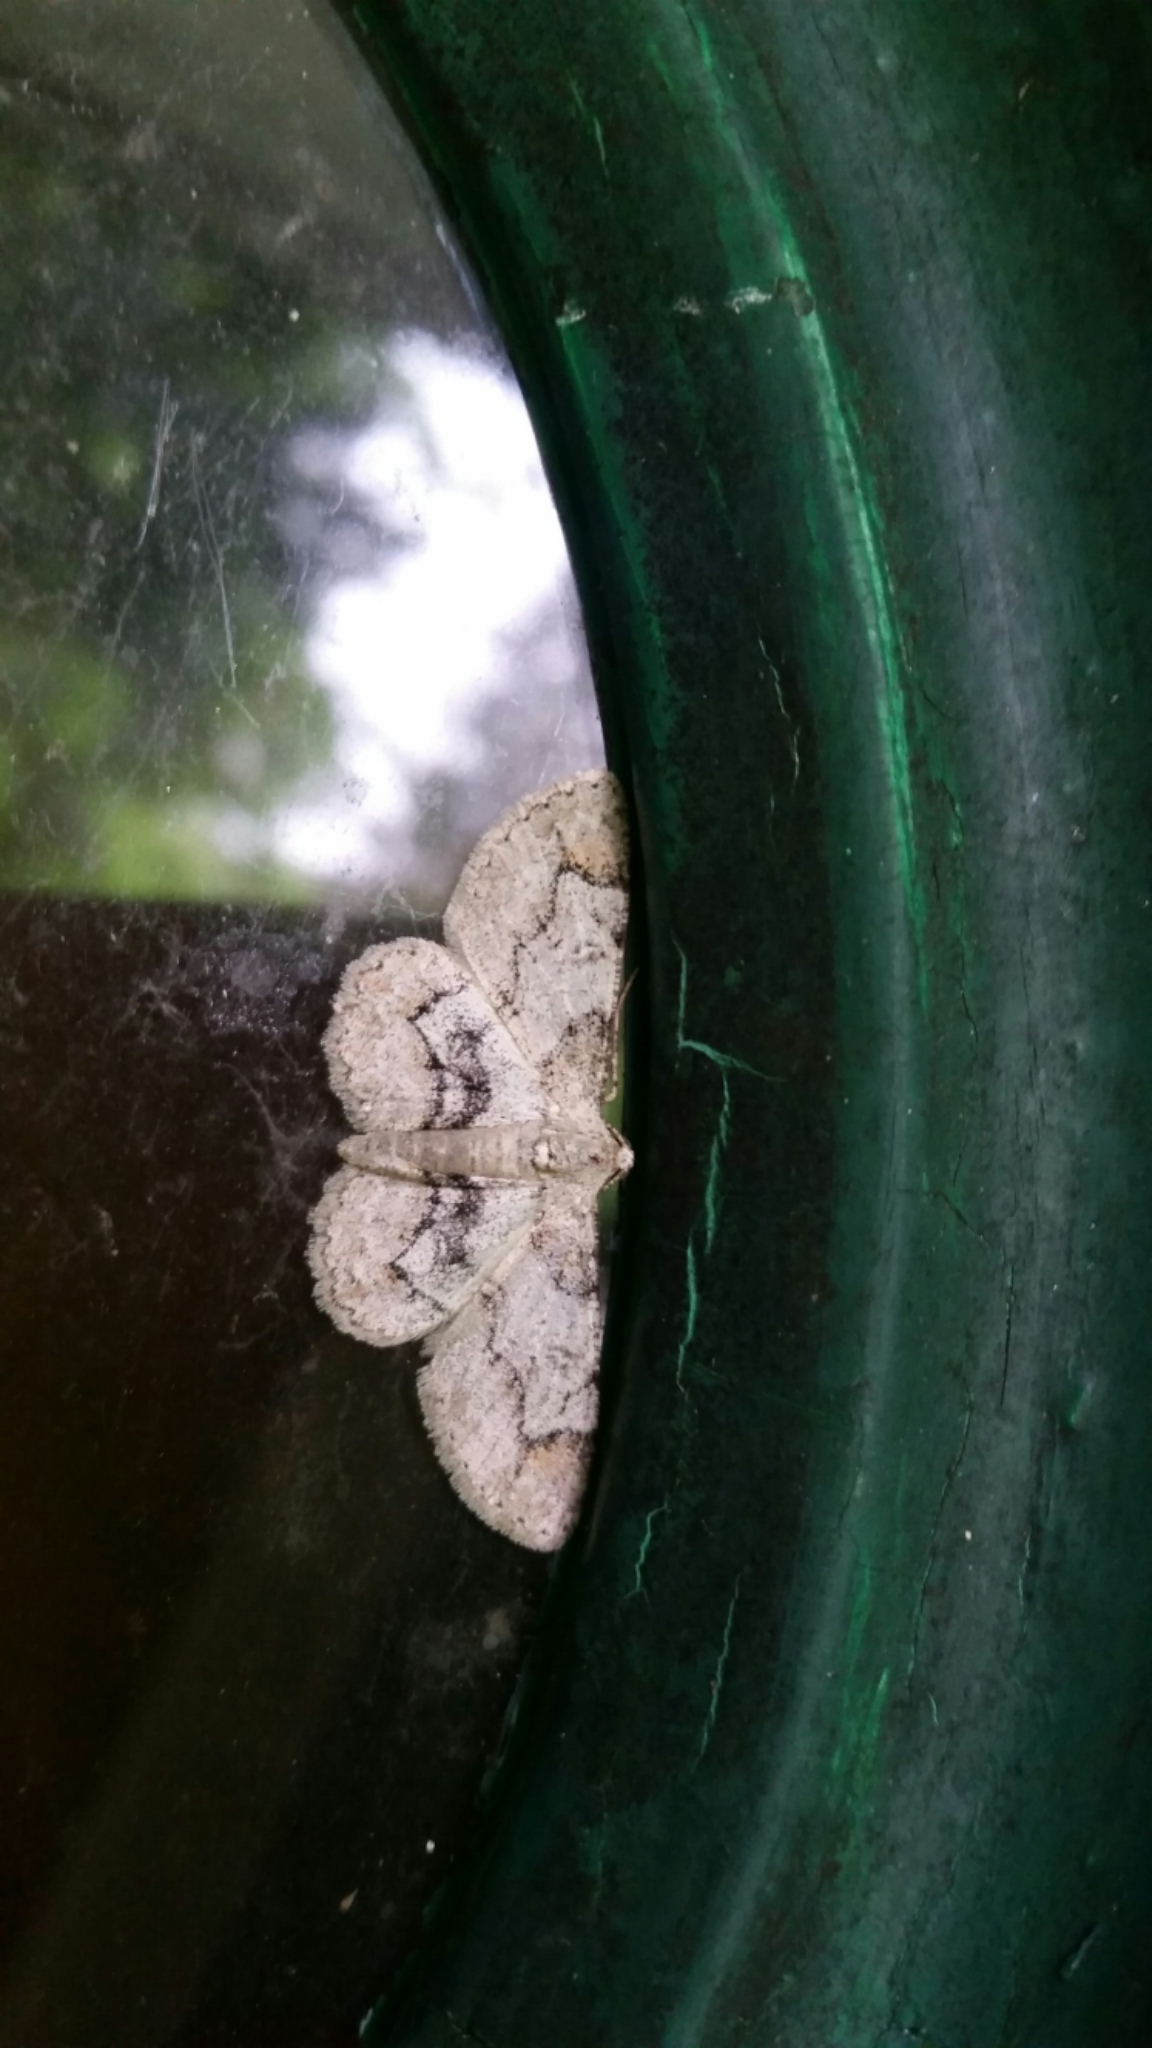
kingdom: Animalia
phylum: Arthropoda
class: Insecta
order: Lepidoptera
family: Geometridae
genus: Iridopsis
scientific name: Iridopsis larvaria
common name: Bent-line gray
